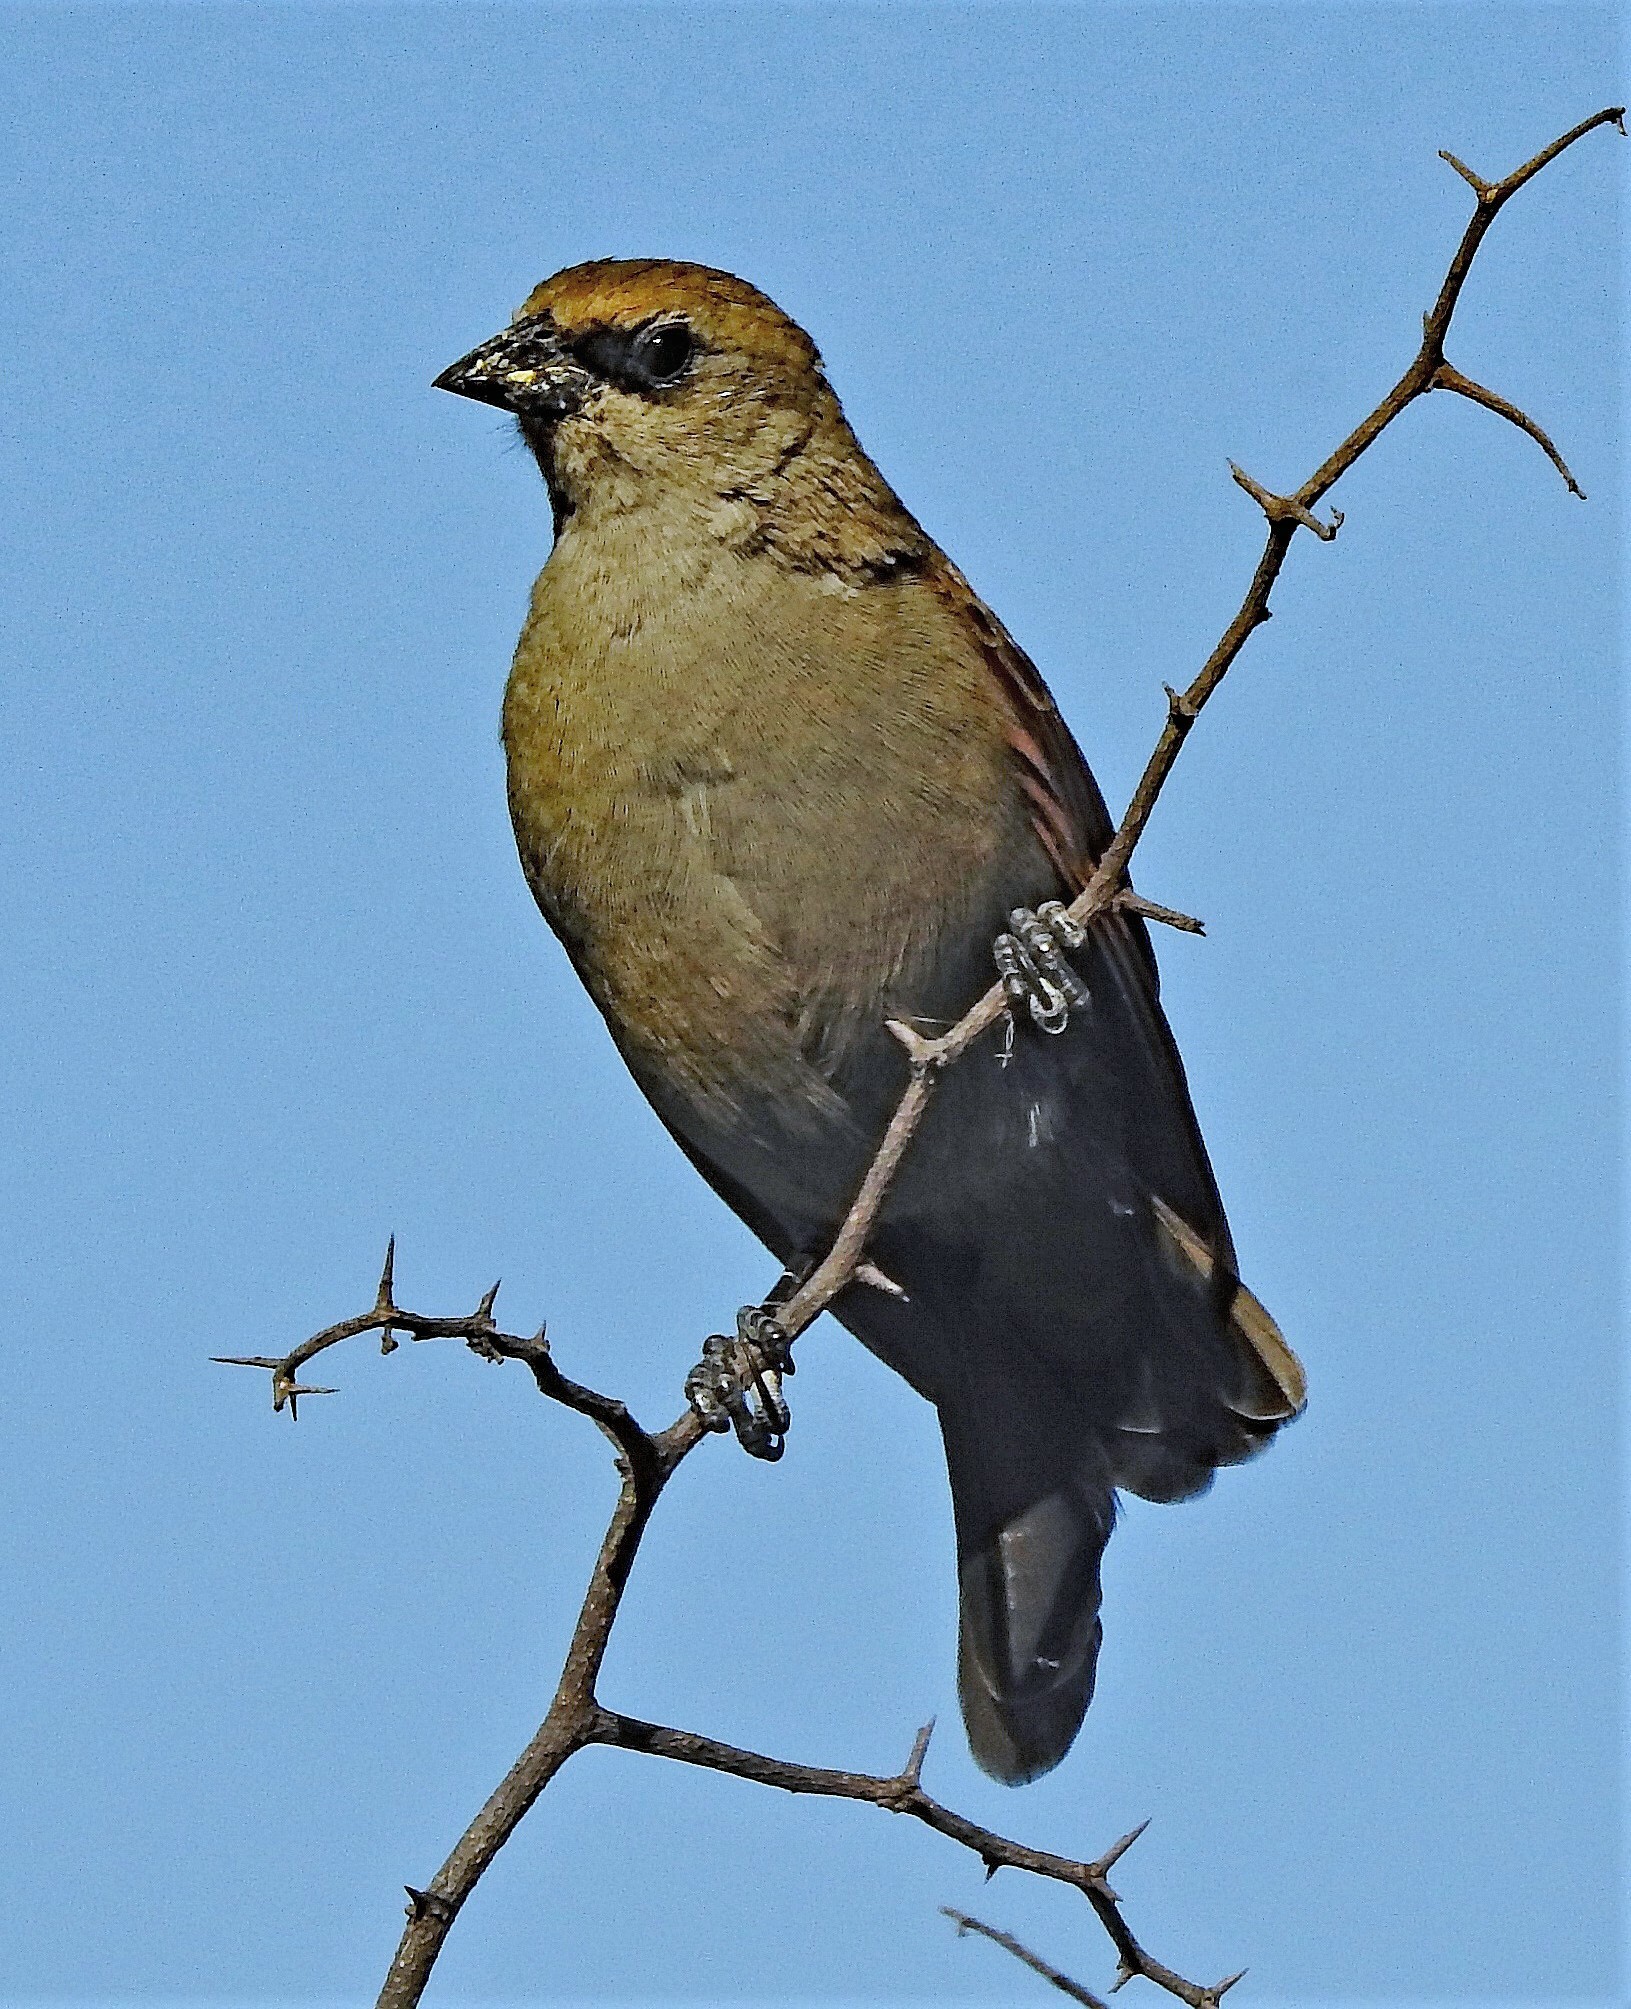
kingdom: Animalia
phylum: Chordata
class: Aves
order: Passeriformes
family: Icteridae
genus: Agelaioides
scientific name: Agelaioides badius
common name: Baywing
